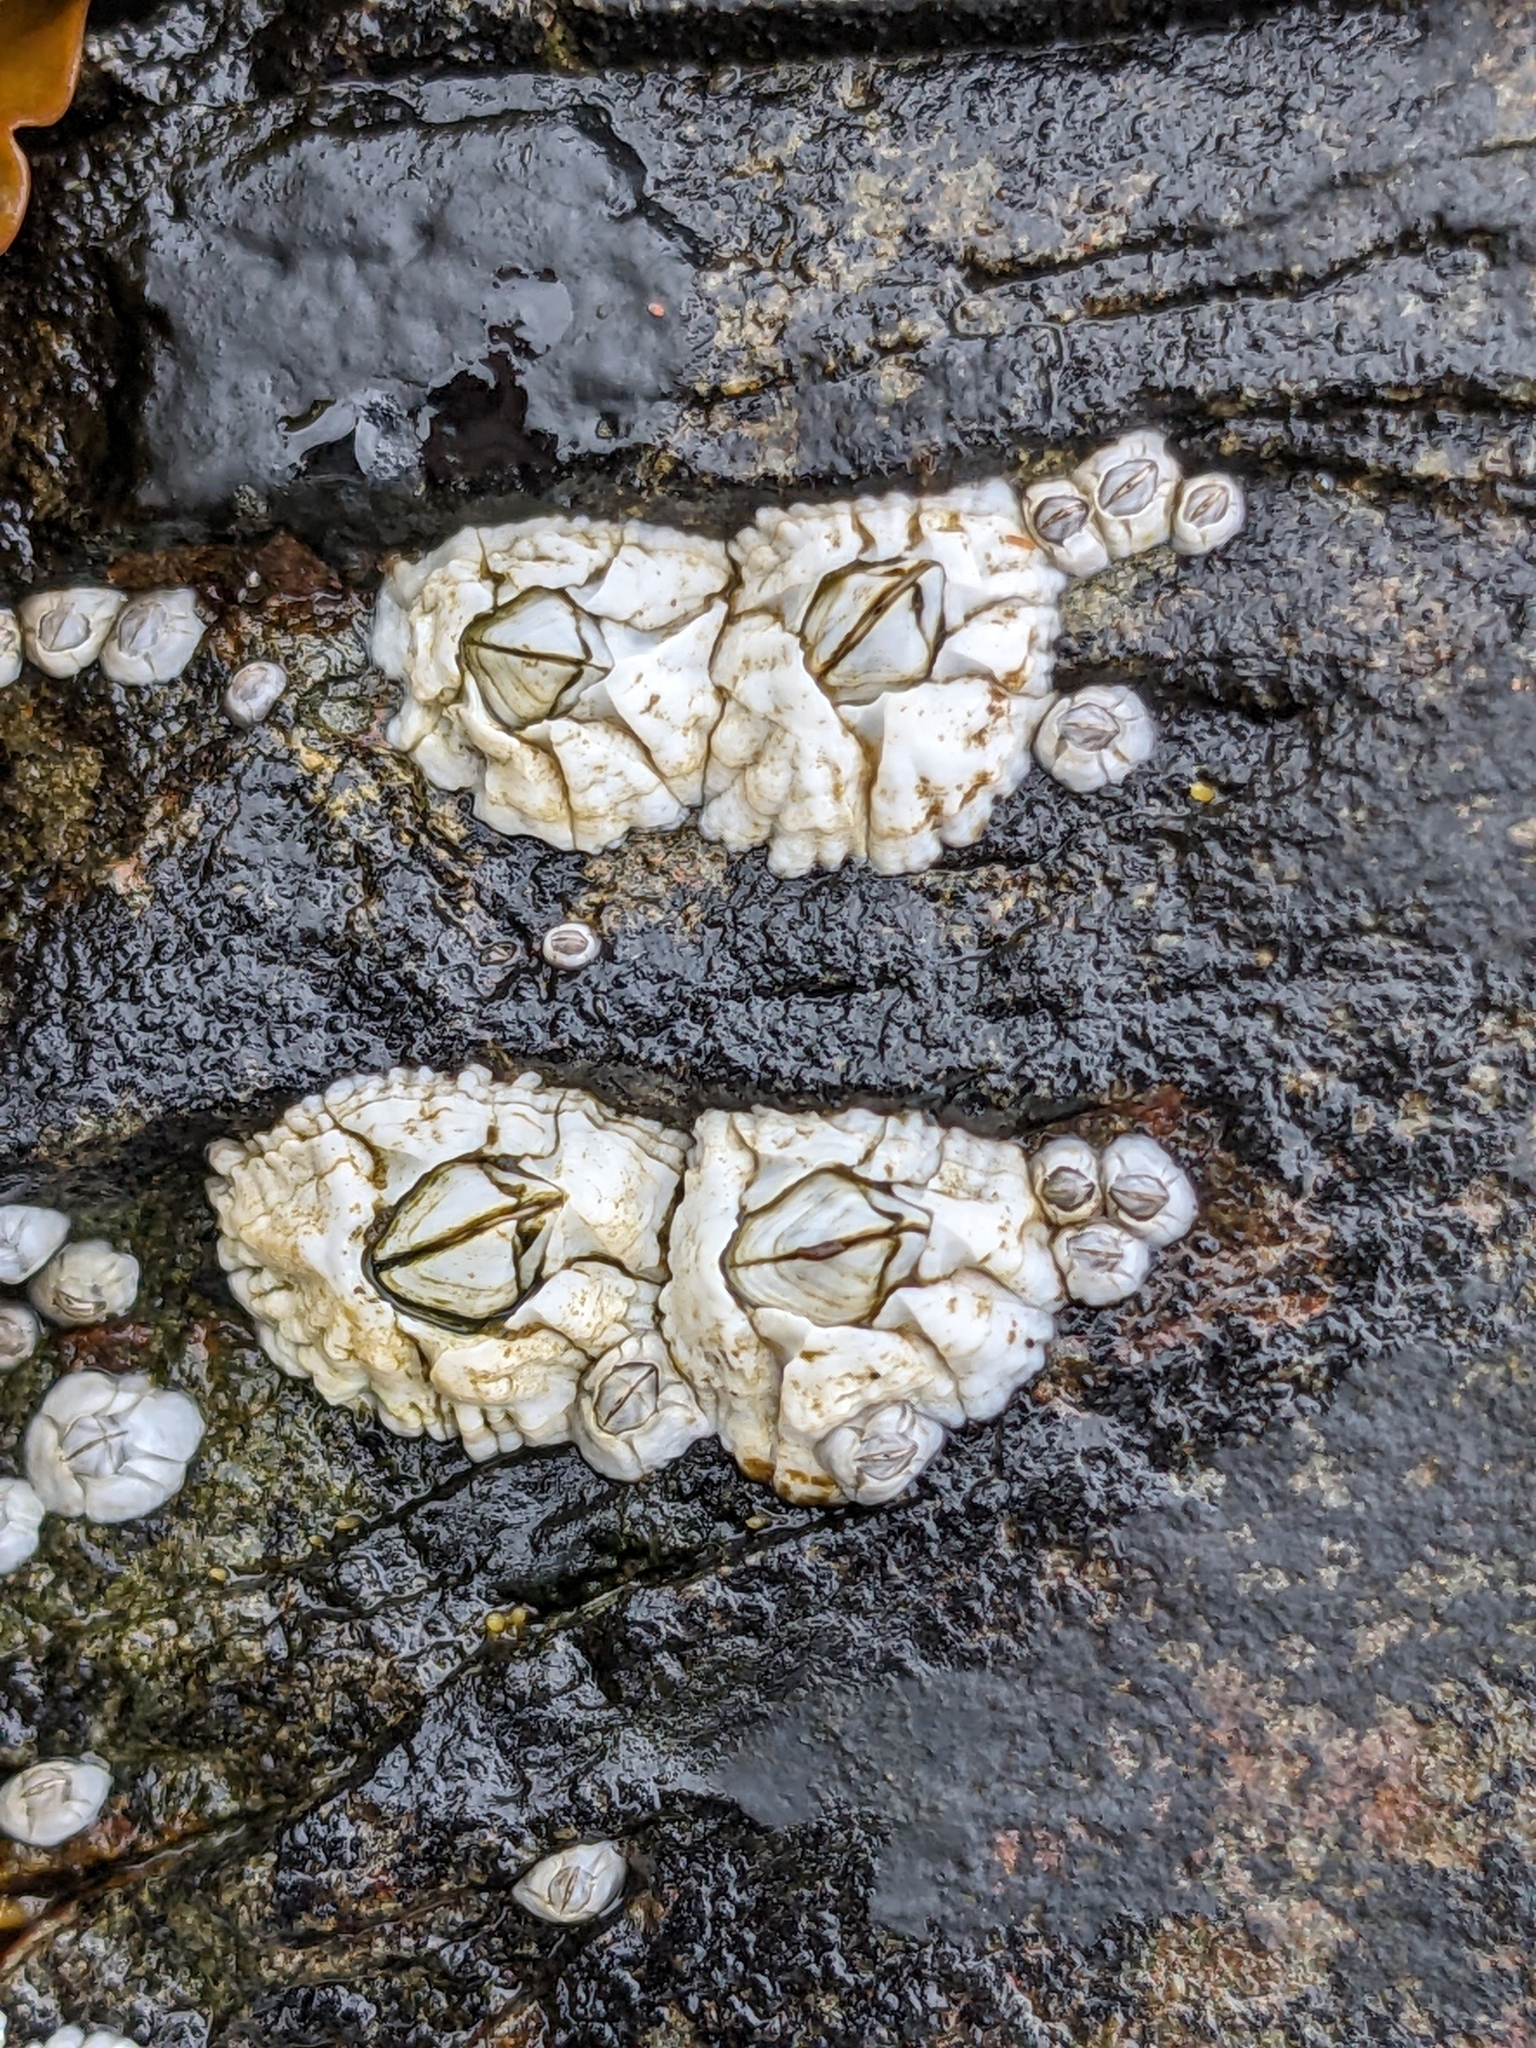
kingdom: Animalia
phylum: Arthropoda
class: Maxillopoda
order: Sessilia
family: Archaeobalanidae
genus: Semibalanus
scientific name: Semibalanus balanoides
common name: Acorn barnacle
